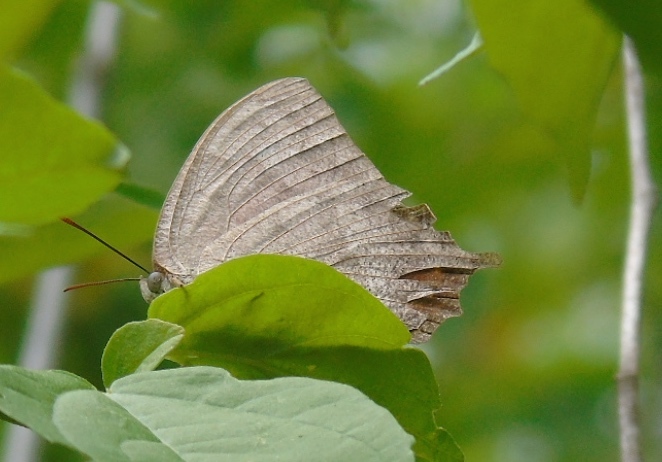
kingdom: Animalia
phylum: Arthropoda
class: Insecta
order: Lepidoptera
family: Nymphalidae
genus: Anaea
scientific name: Anaea
